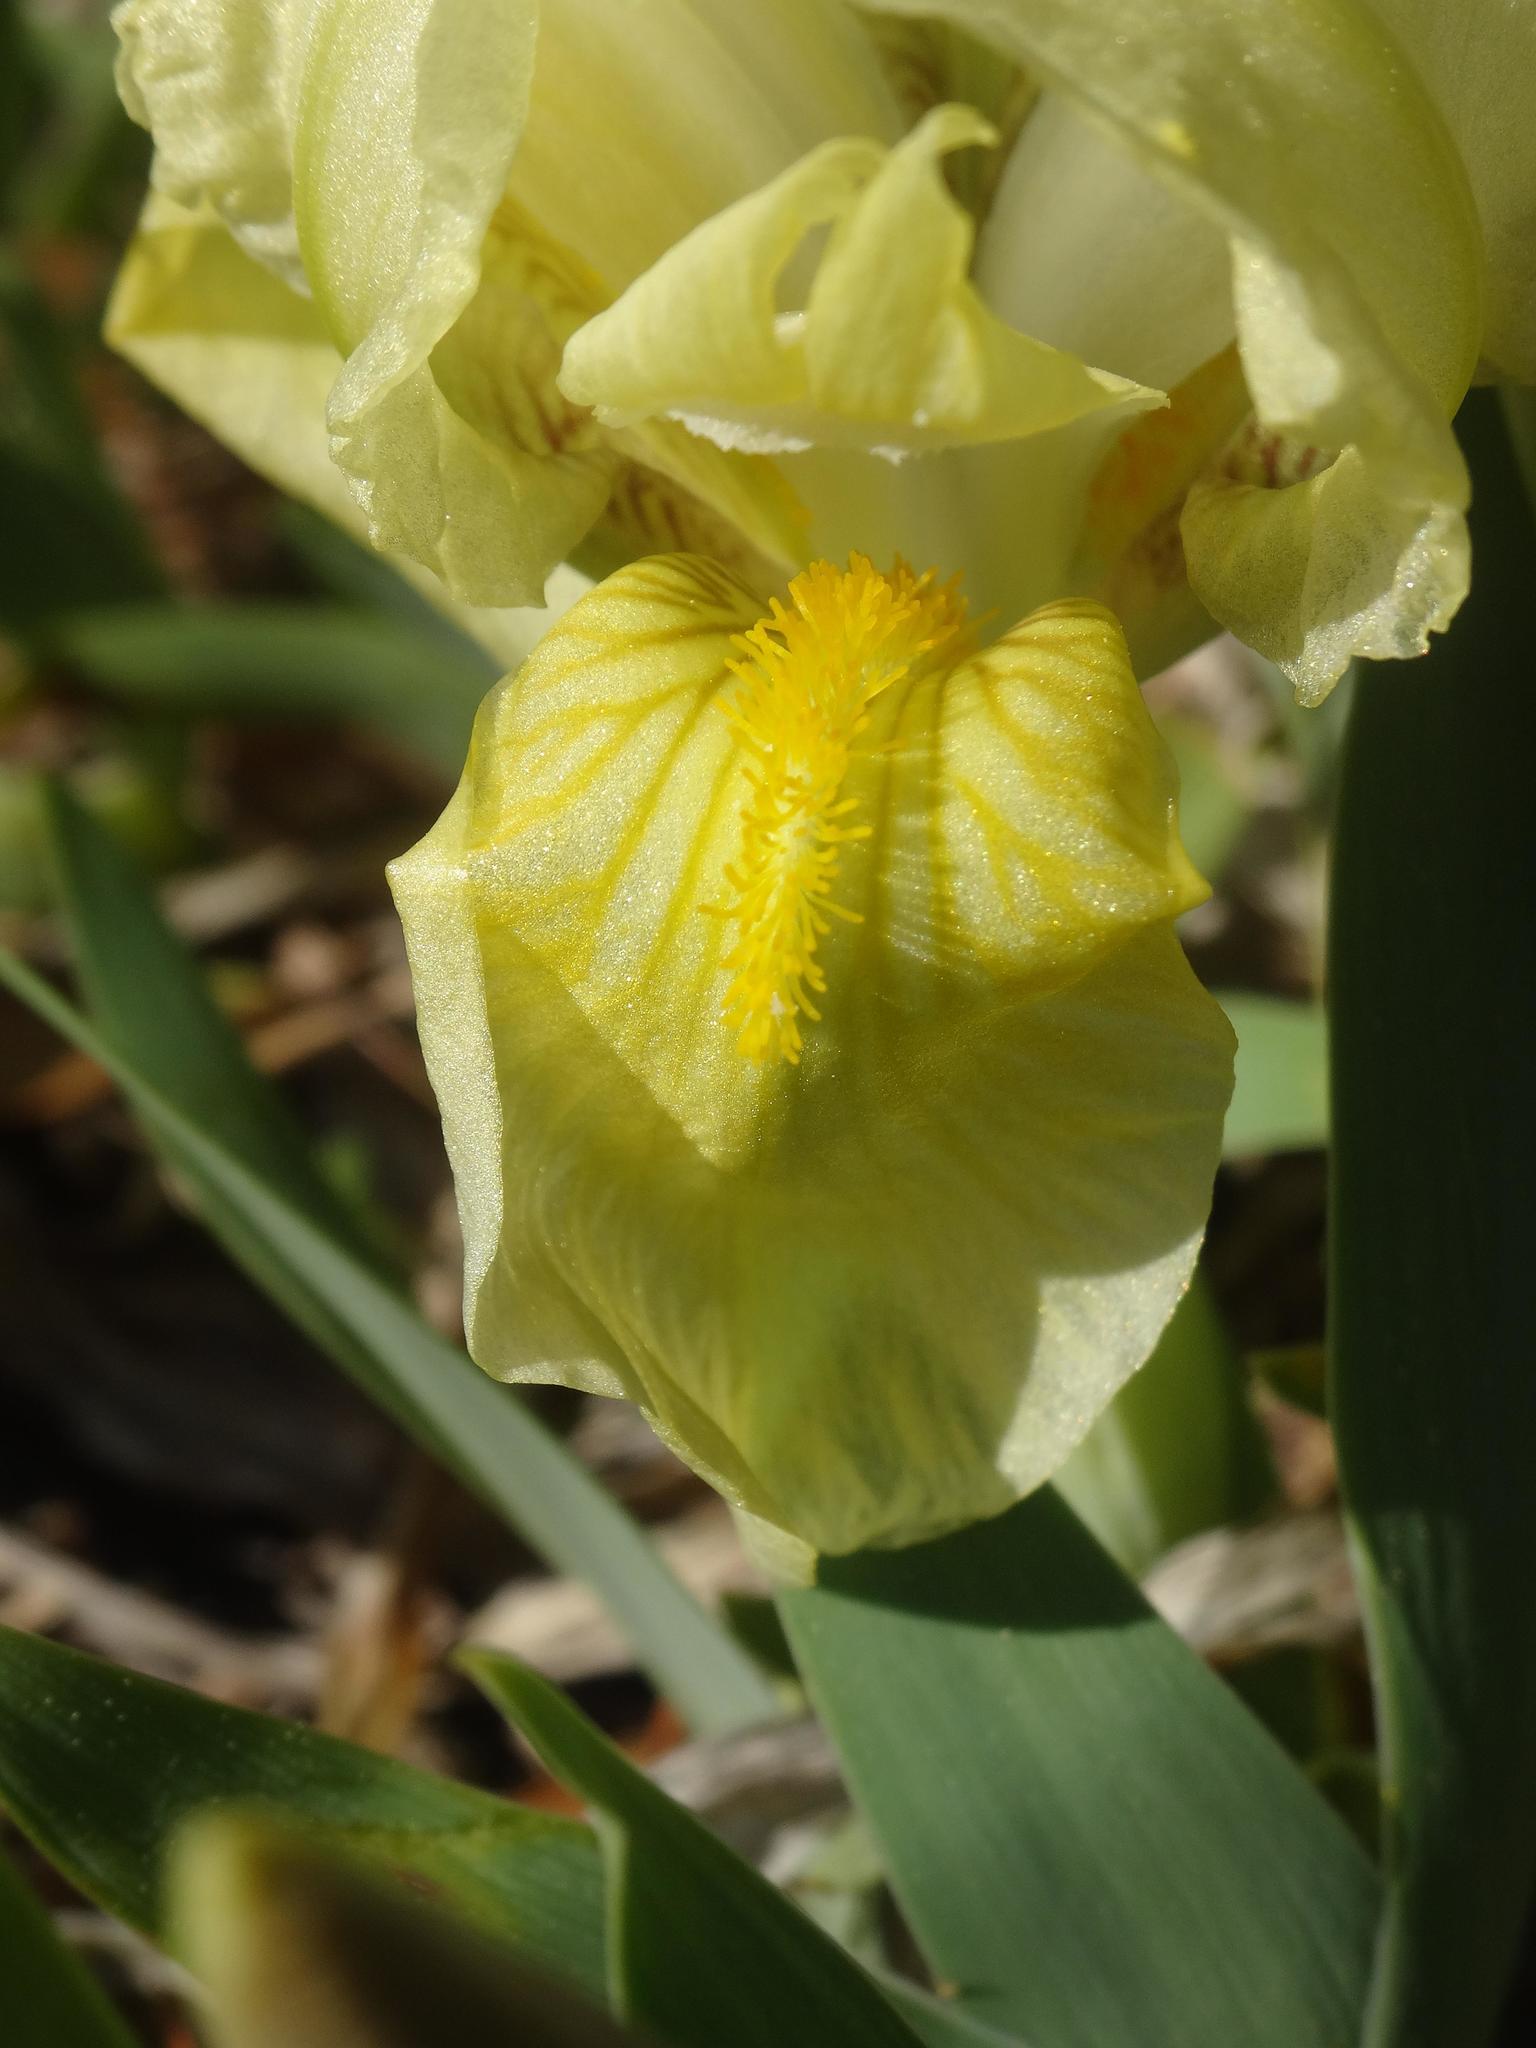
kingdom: Plantae
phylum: Tracheophyta
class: Liliopsida
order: Asparagales
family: Iridaceae
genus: Iris
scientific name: Iris lutescens
